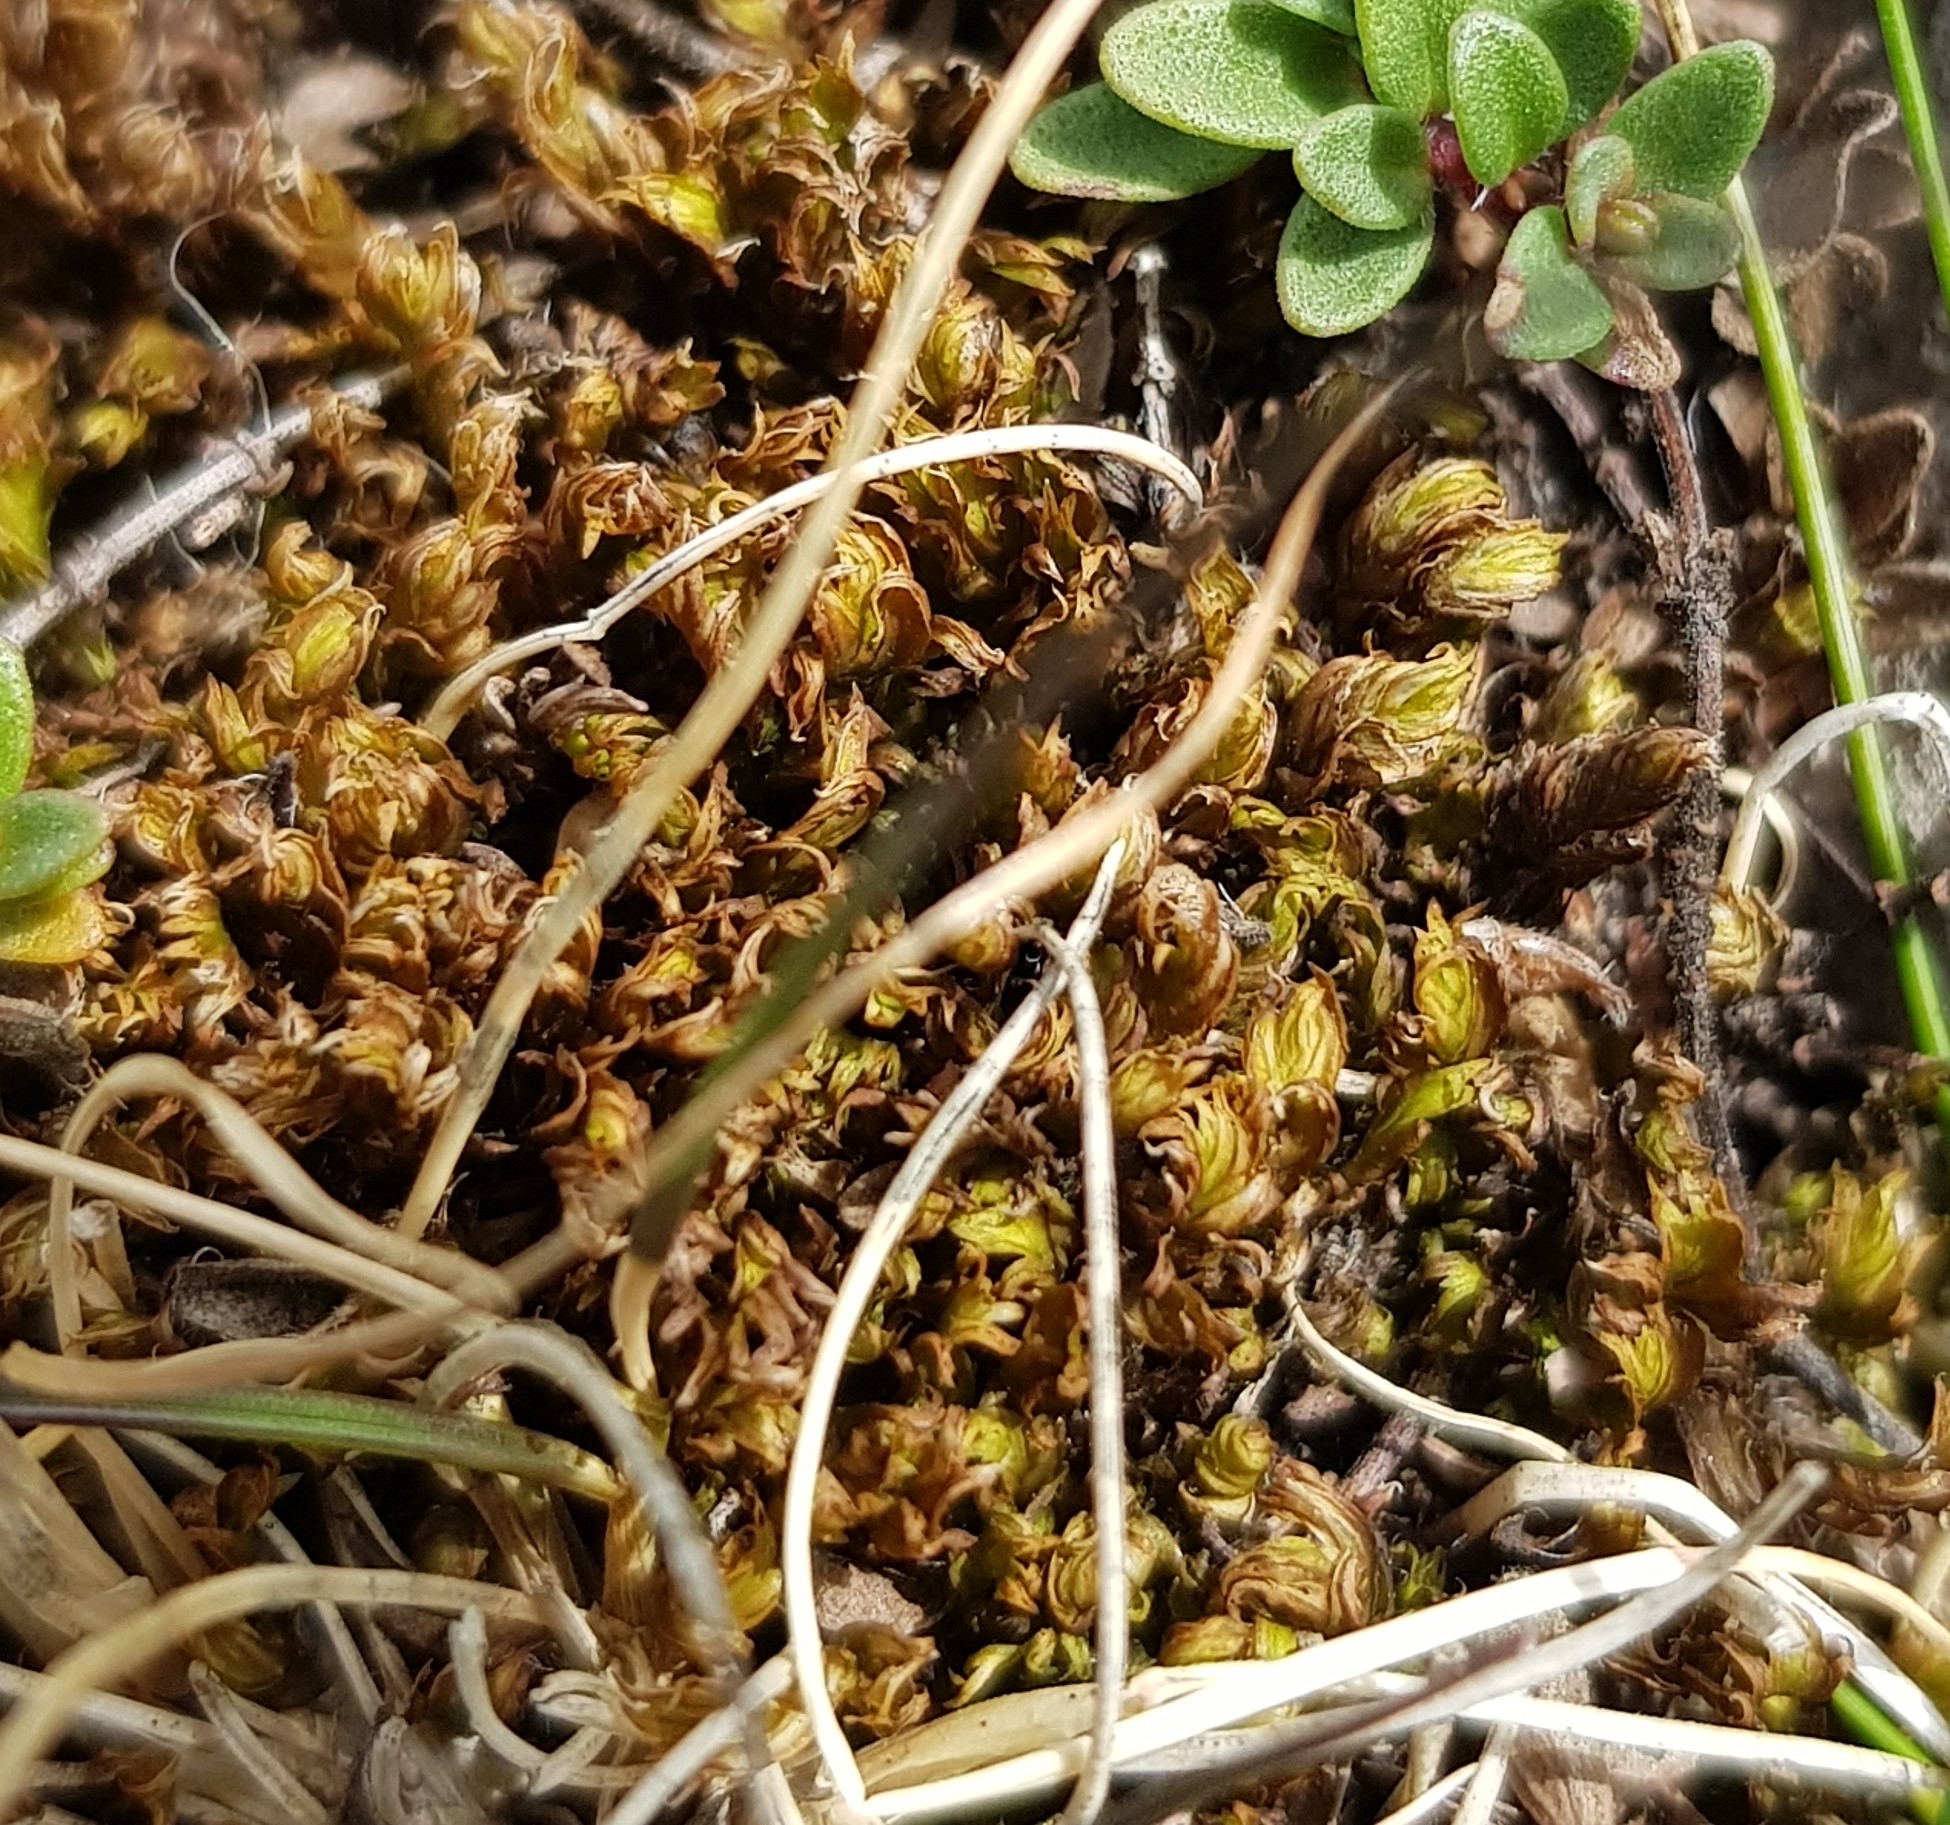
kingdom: Plantae
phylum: Bryophyta
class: Bryopsida
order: Dicranales
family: Fissidentaceae
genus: Fissidens
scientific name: Fissidens dubius
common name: Rock pocket moss
